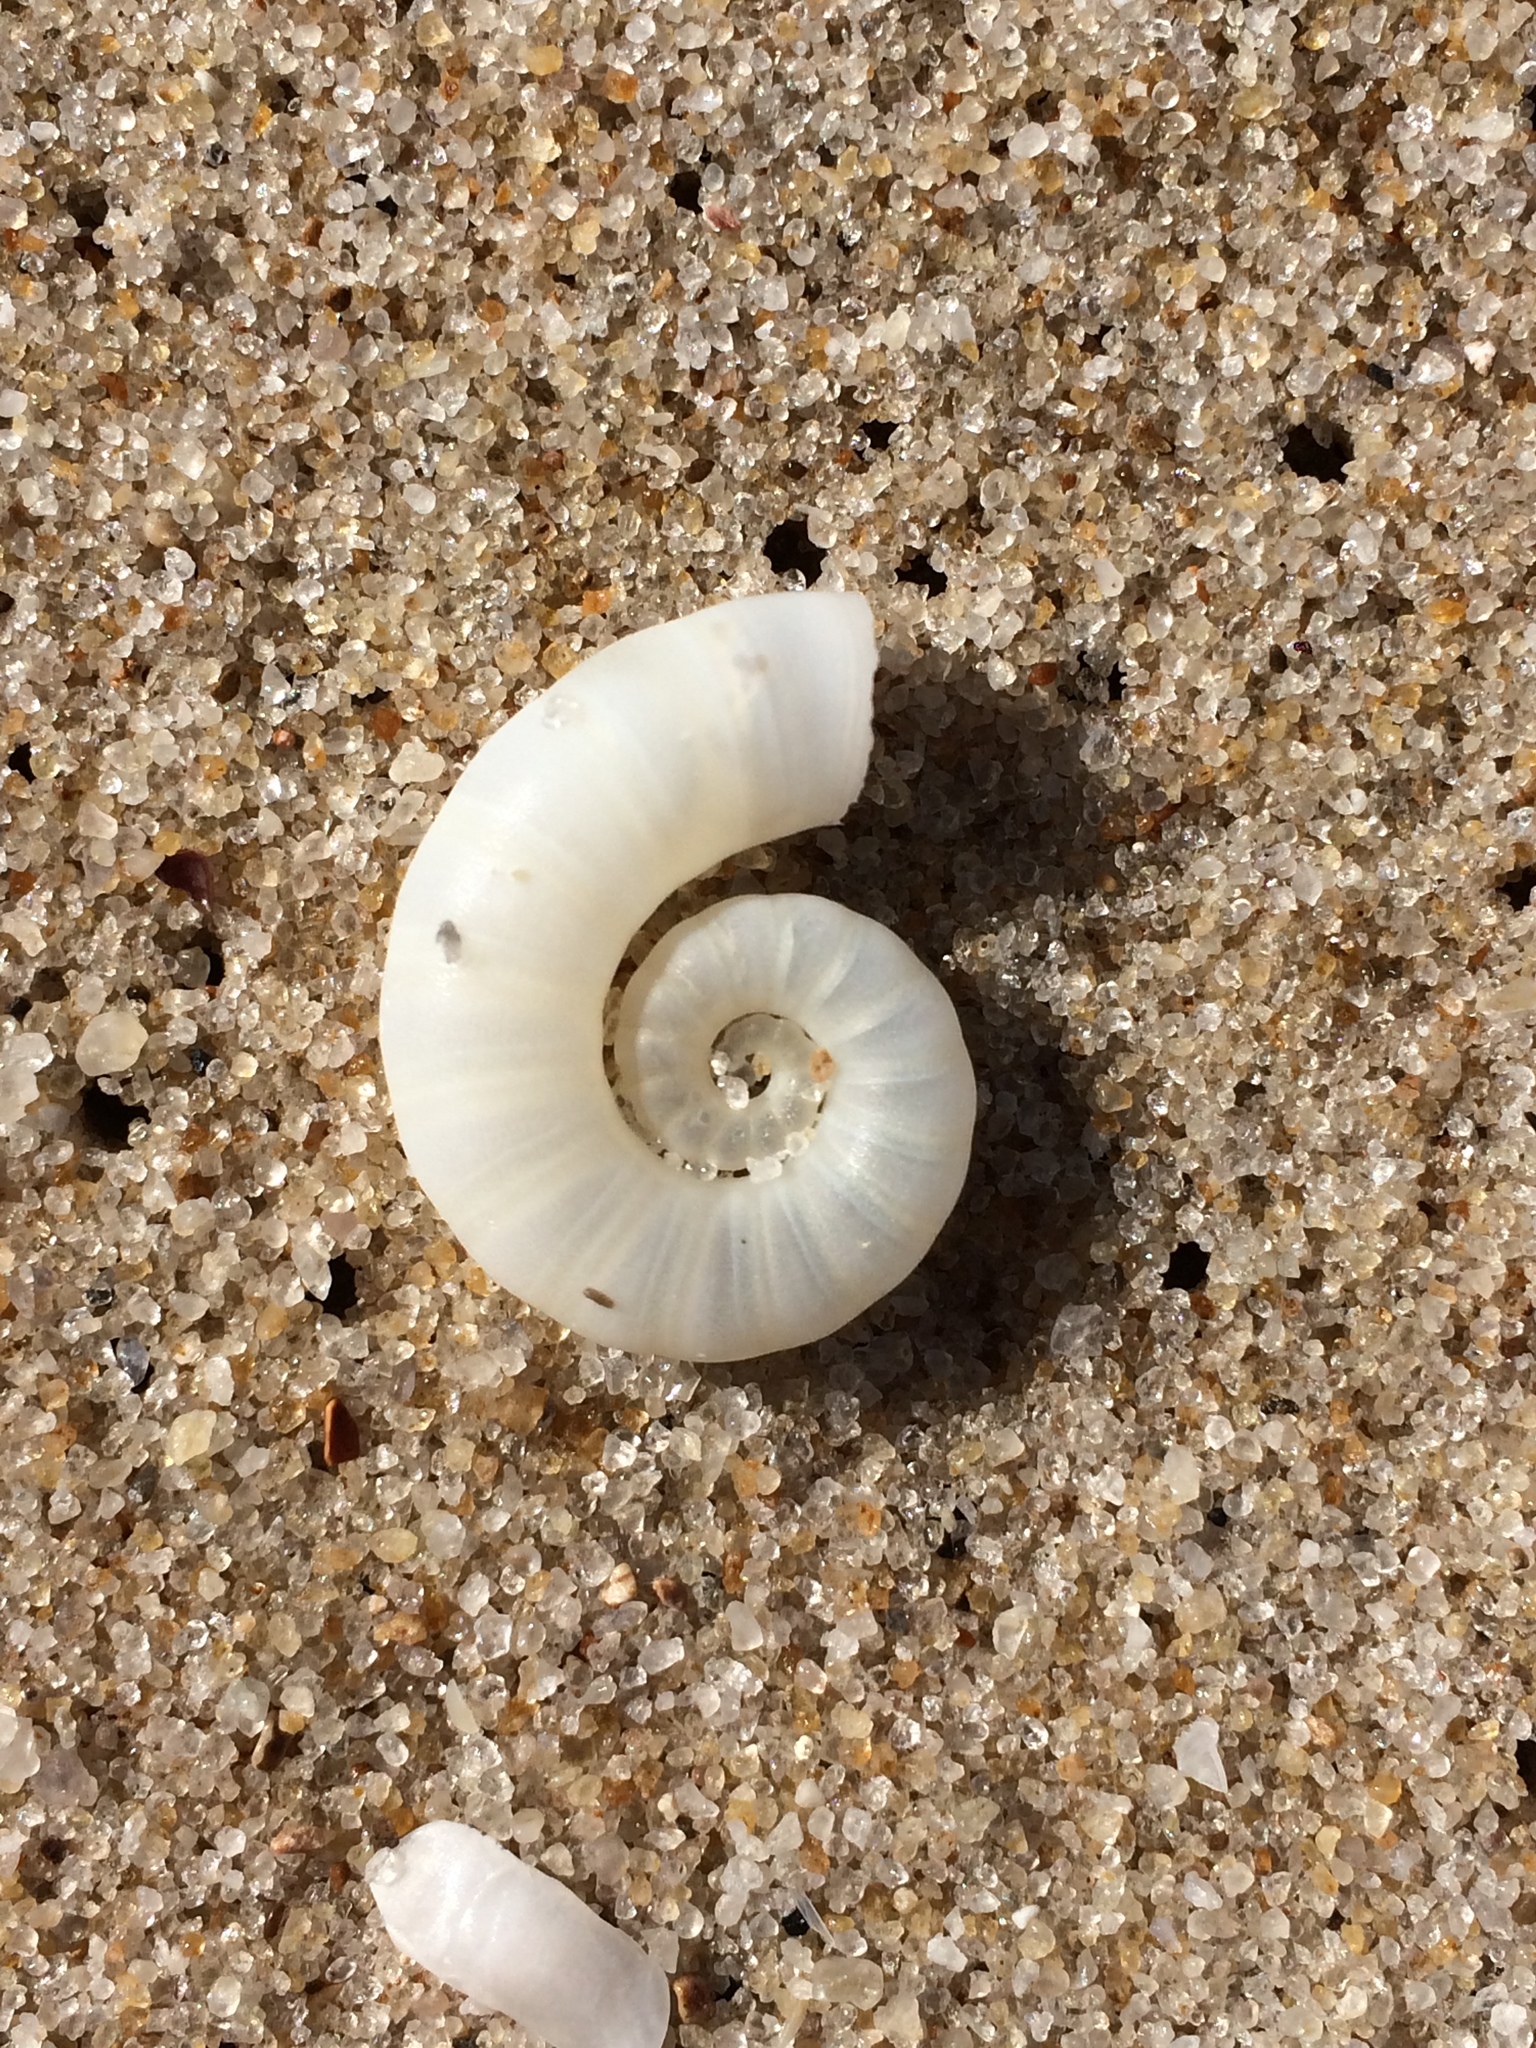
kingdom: Animalia
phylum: Mollusca
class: Cephalopoda
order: Spirulida
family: Spirulidae
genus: Spirula
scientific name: Spirula spirula
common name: Ram's horn squid
